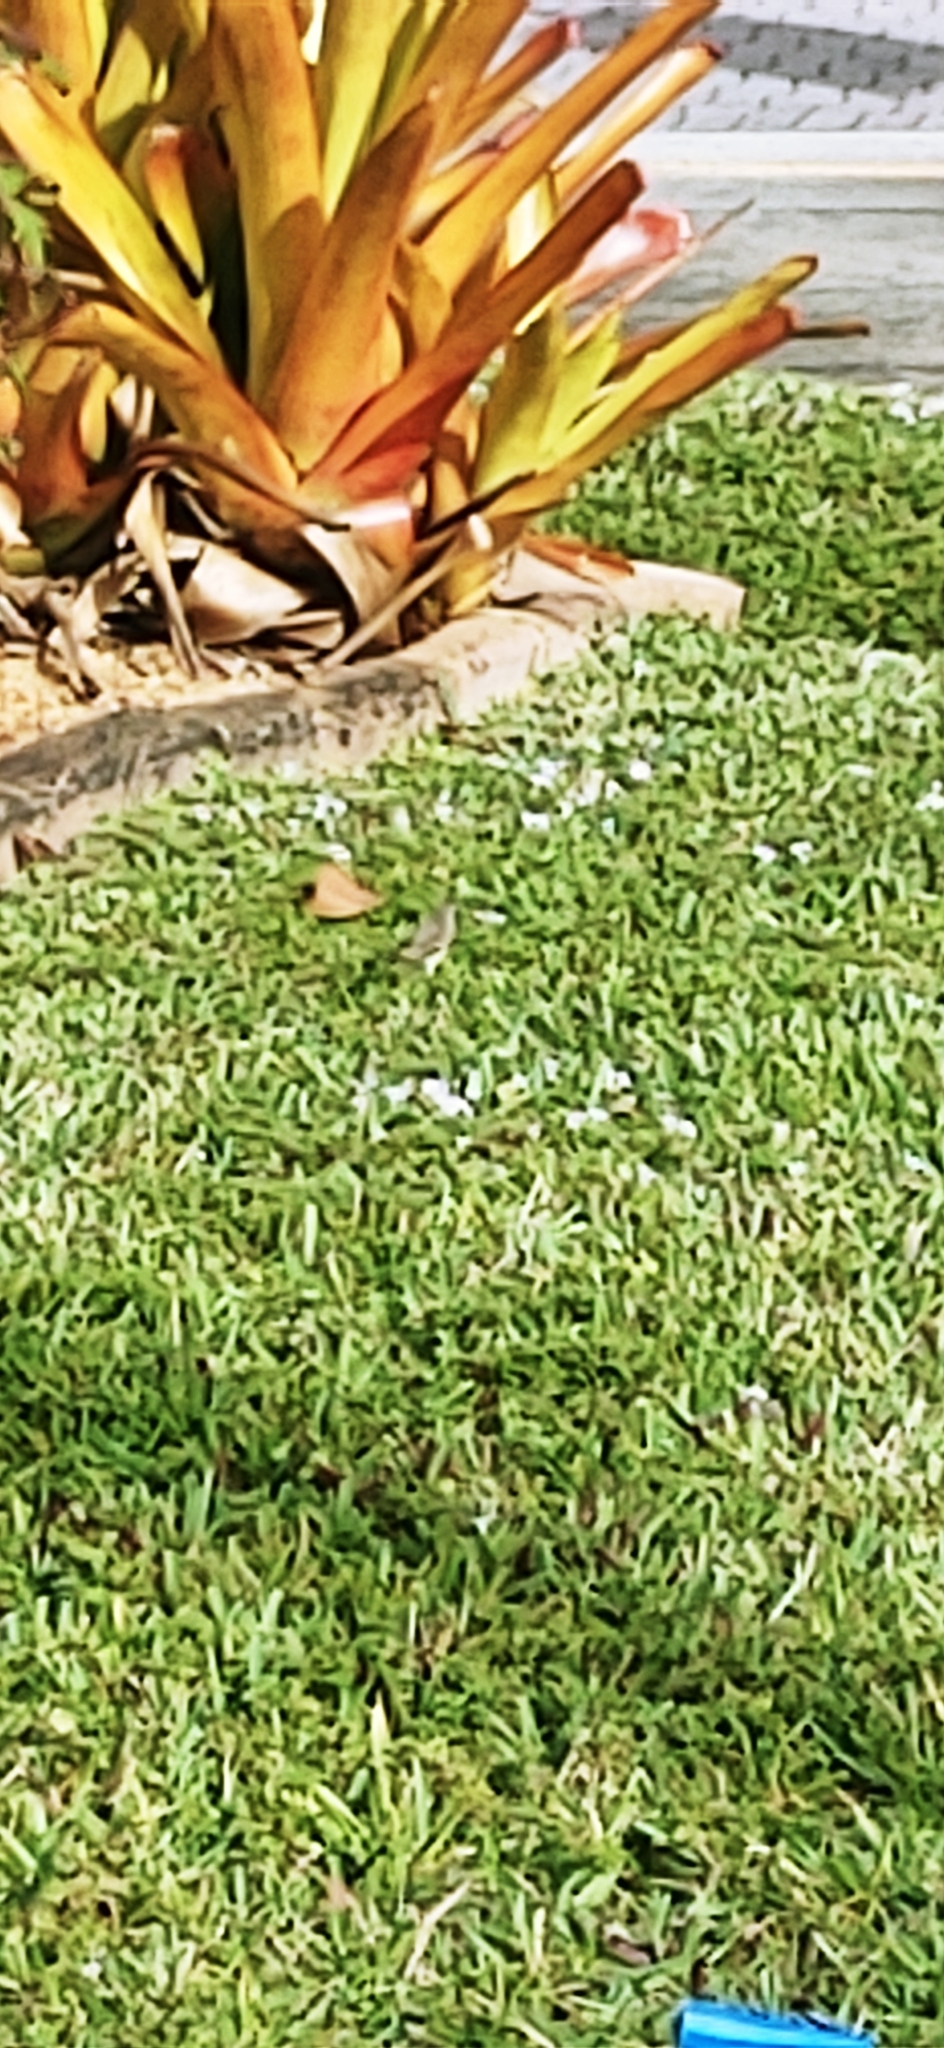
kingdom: Animalia
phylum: Chordata
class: Aves
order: Passeriformes
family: Parulidae
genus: Setophaga
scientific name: Setophaga palmarum
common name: Palm warbler
